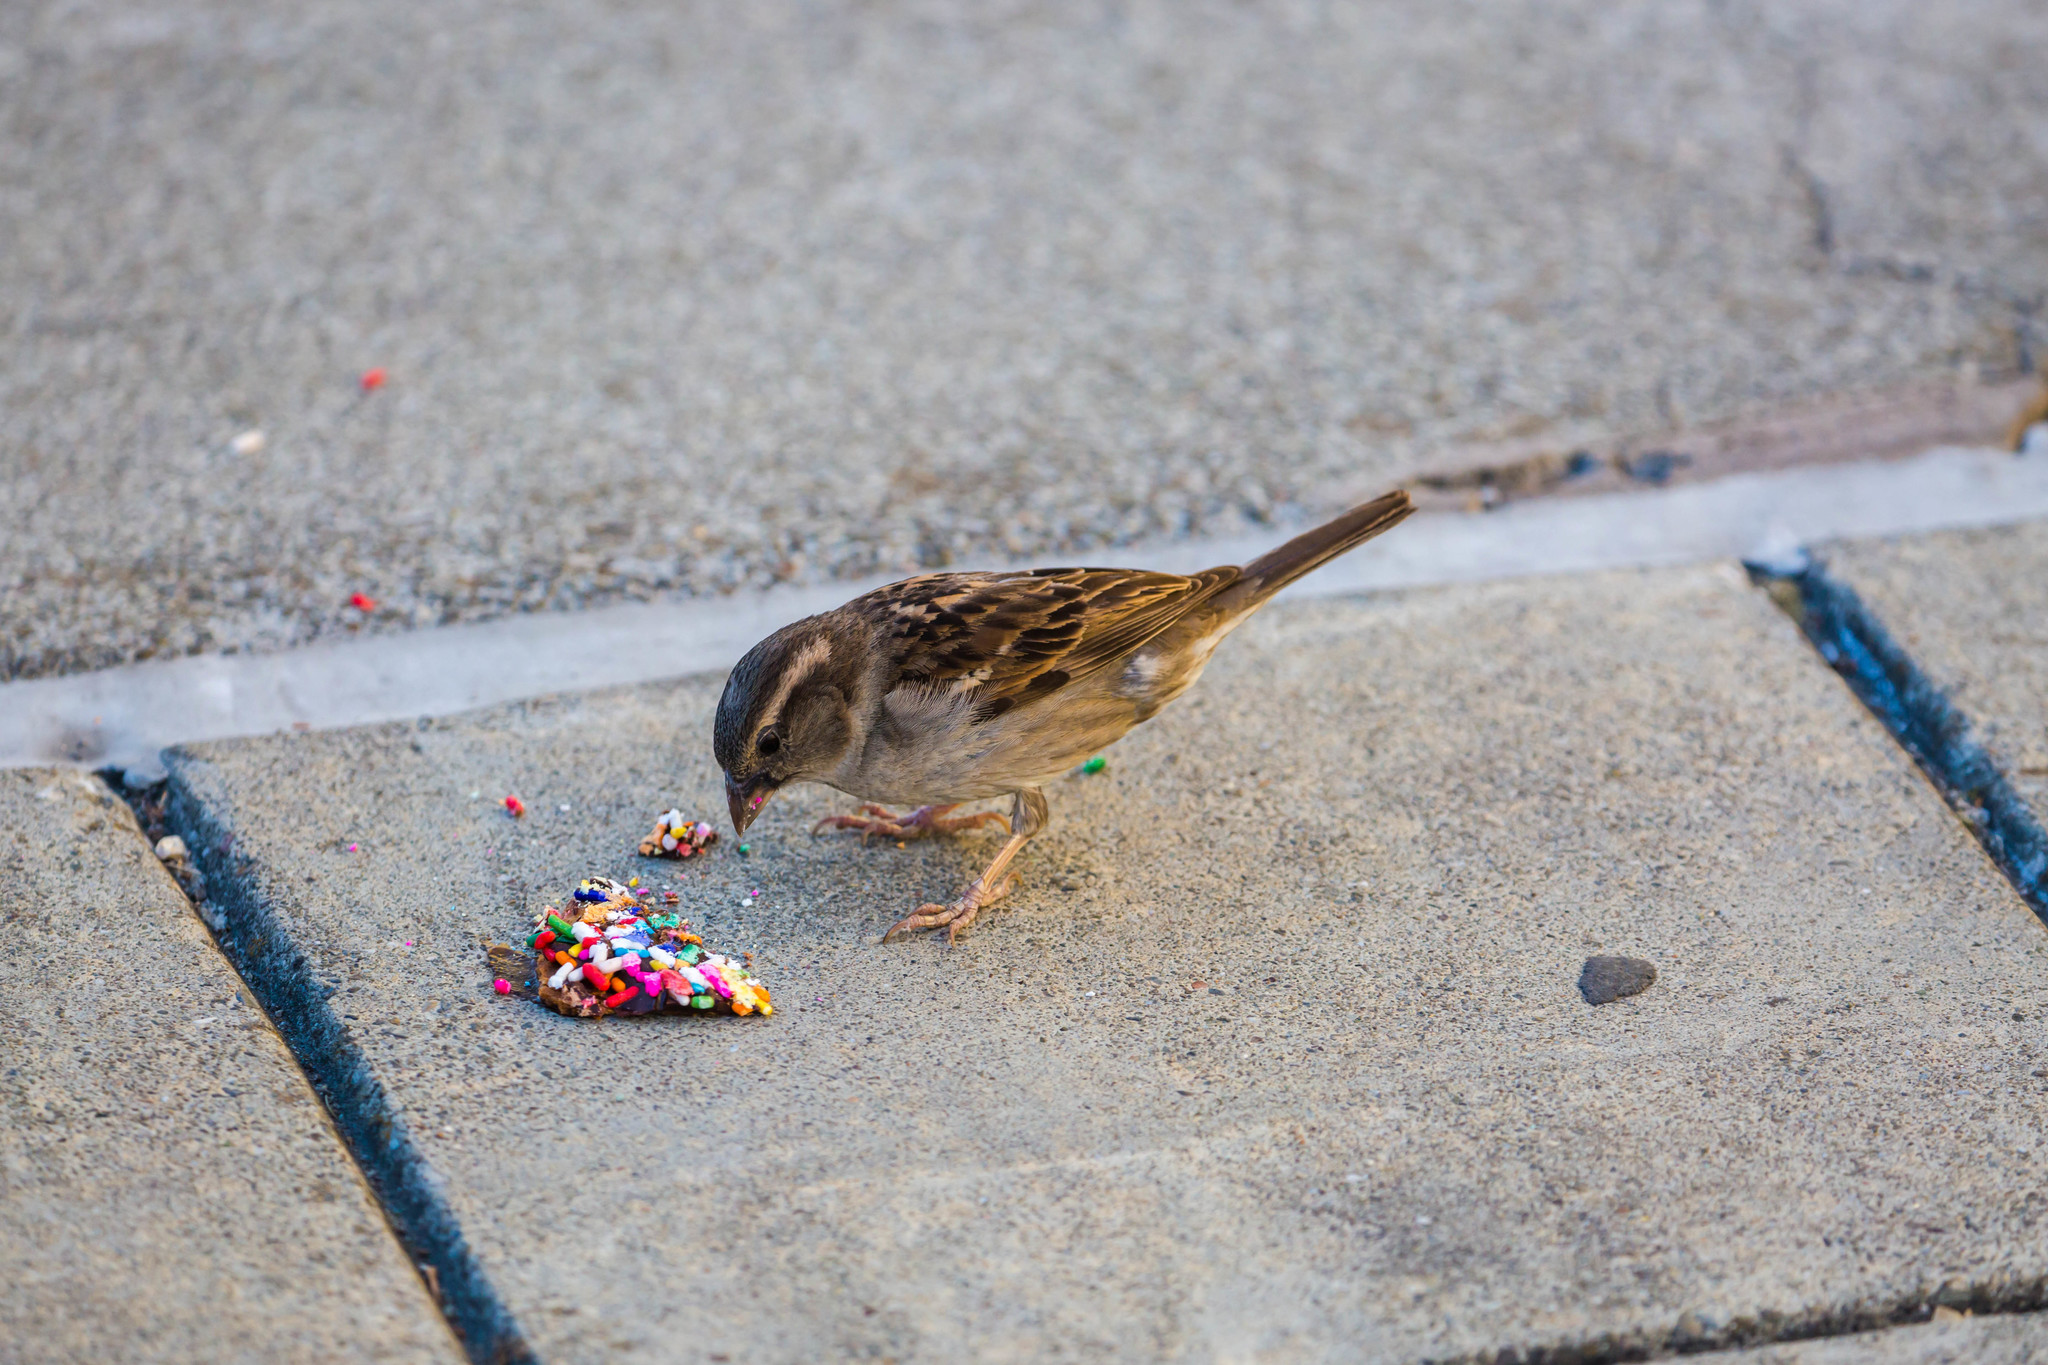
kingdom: Animalia
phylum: Chordata
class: Aves
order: Passeriformes
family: Passeridae
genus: Passer
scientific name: Passer domesticus
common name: House sparrow
